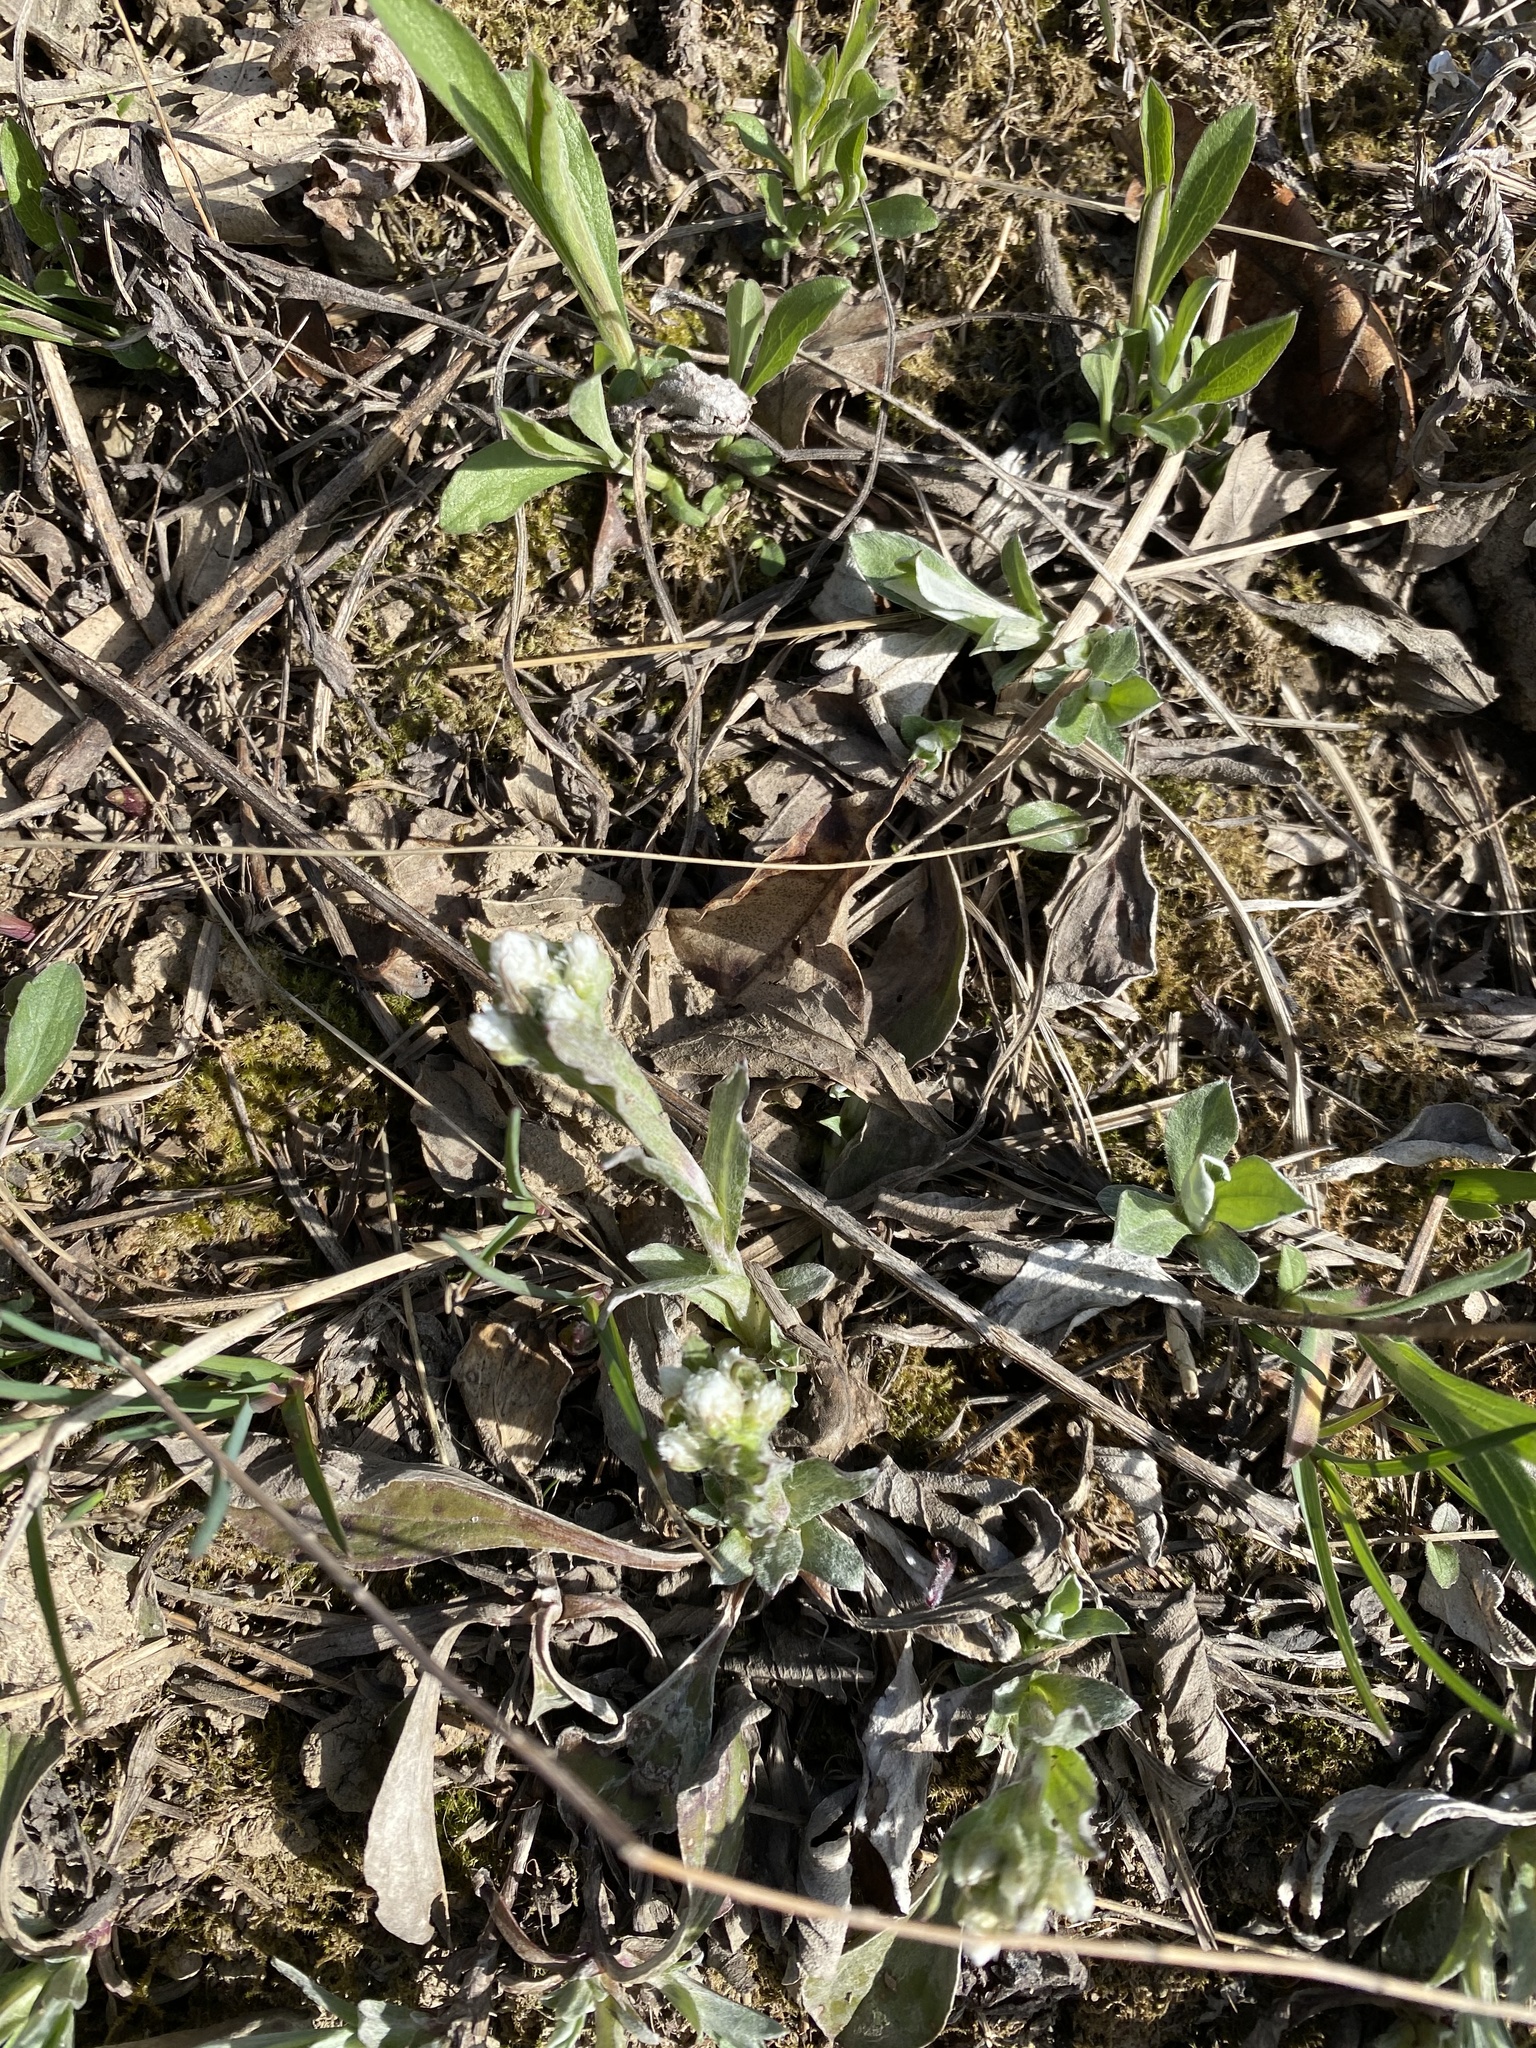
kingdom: Plantae
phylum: Tracheophyta
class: Magnoliopsida
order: Asterales
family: Asteraceae
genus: Antennaria
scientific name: Antennaria neglecta
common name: Field pussytoes
